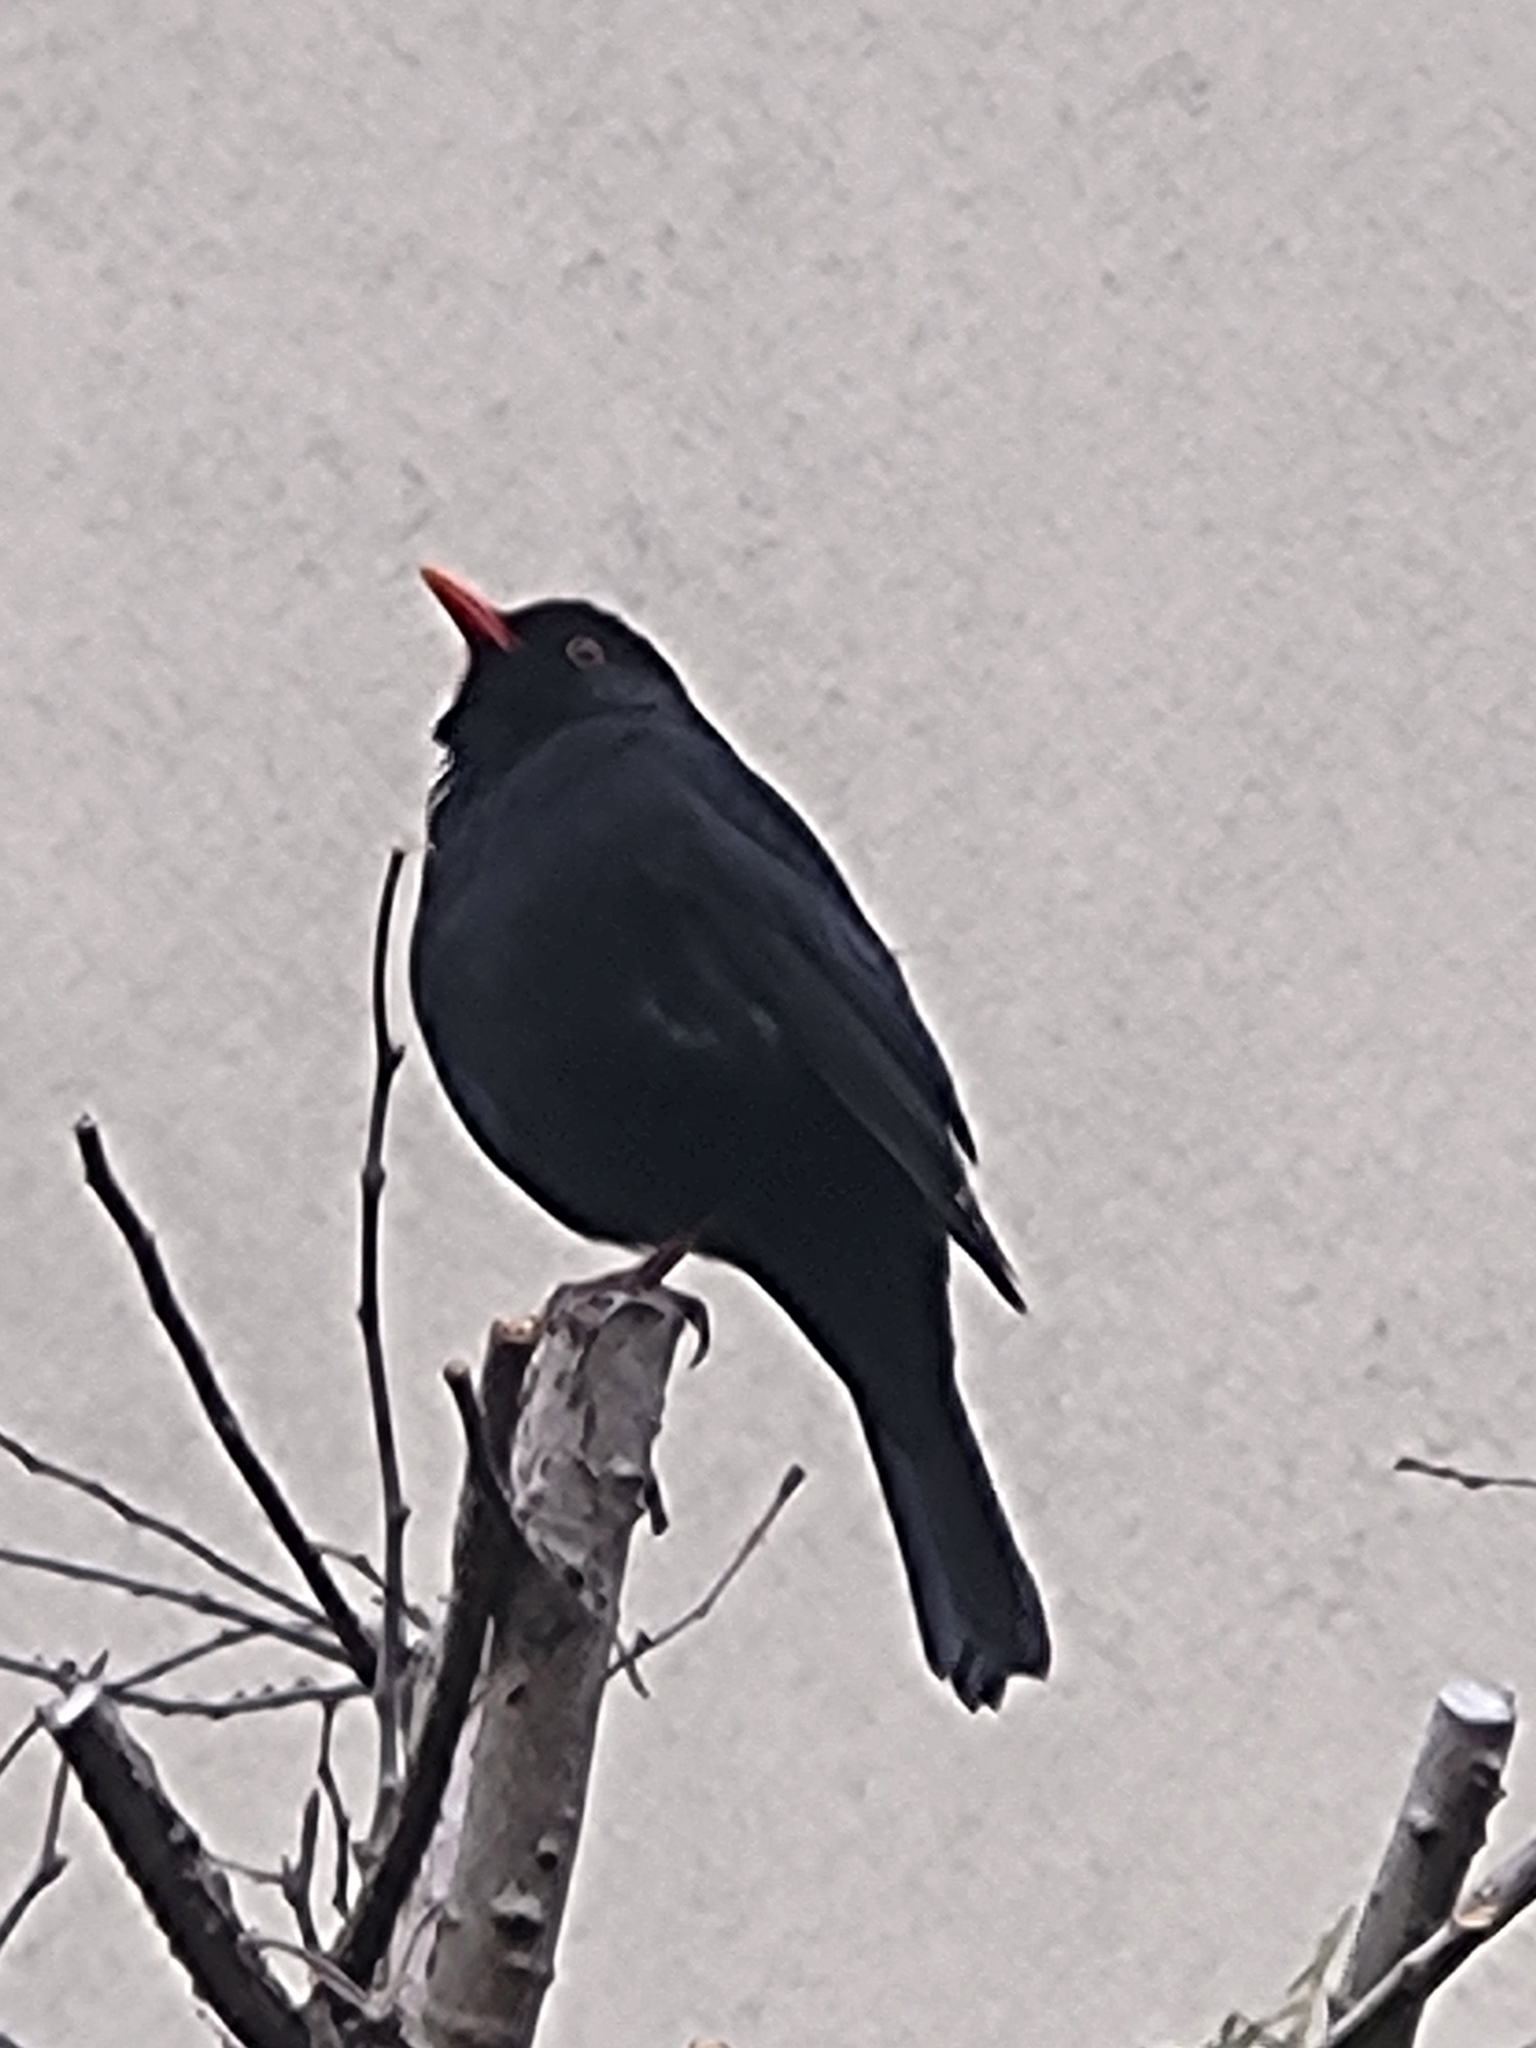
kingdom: Animalia
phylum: Chordata
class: Aves
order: Passeriformes
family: Turdidae
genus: Turdus
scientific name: Turdus merula
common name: Common blackbird
